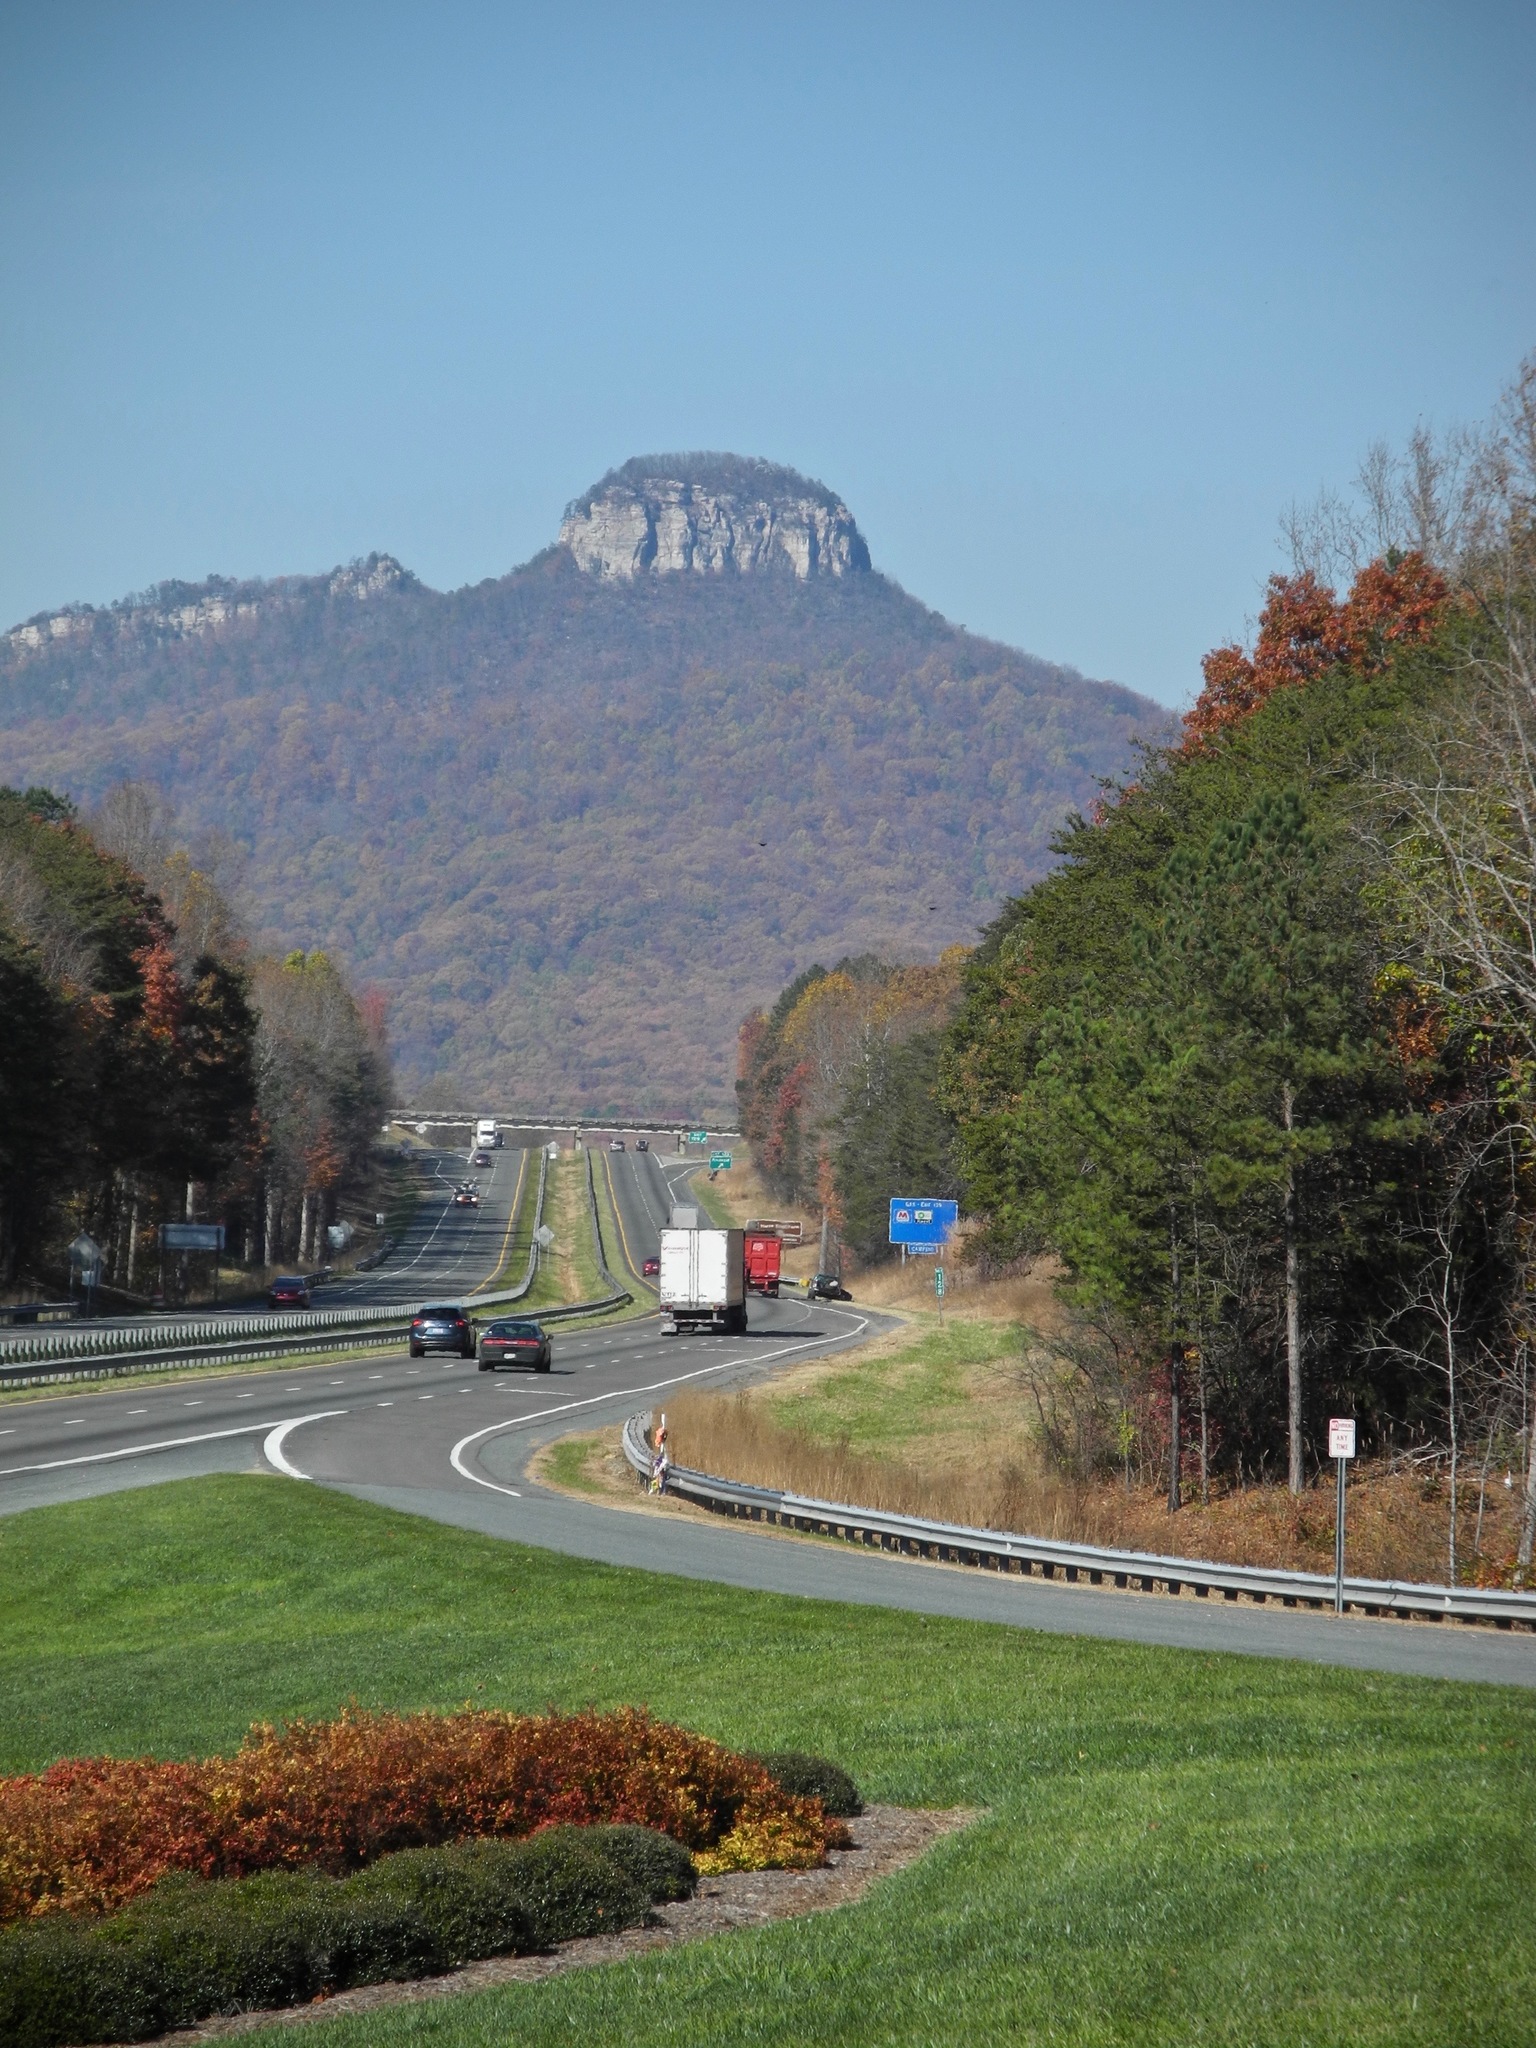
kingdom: Plantae
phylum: Tracheophyta
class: Magnoliopsida
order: Ericales
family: Ericaceae
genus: Oxydendrum
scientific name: Oxydendrum arboreum
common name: Sourwood
